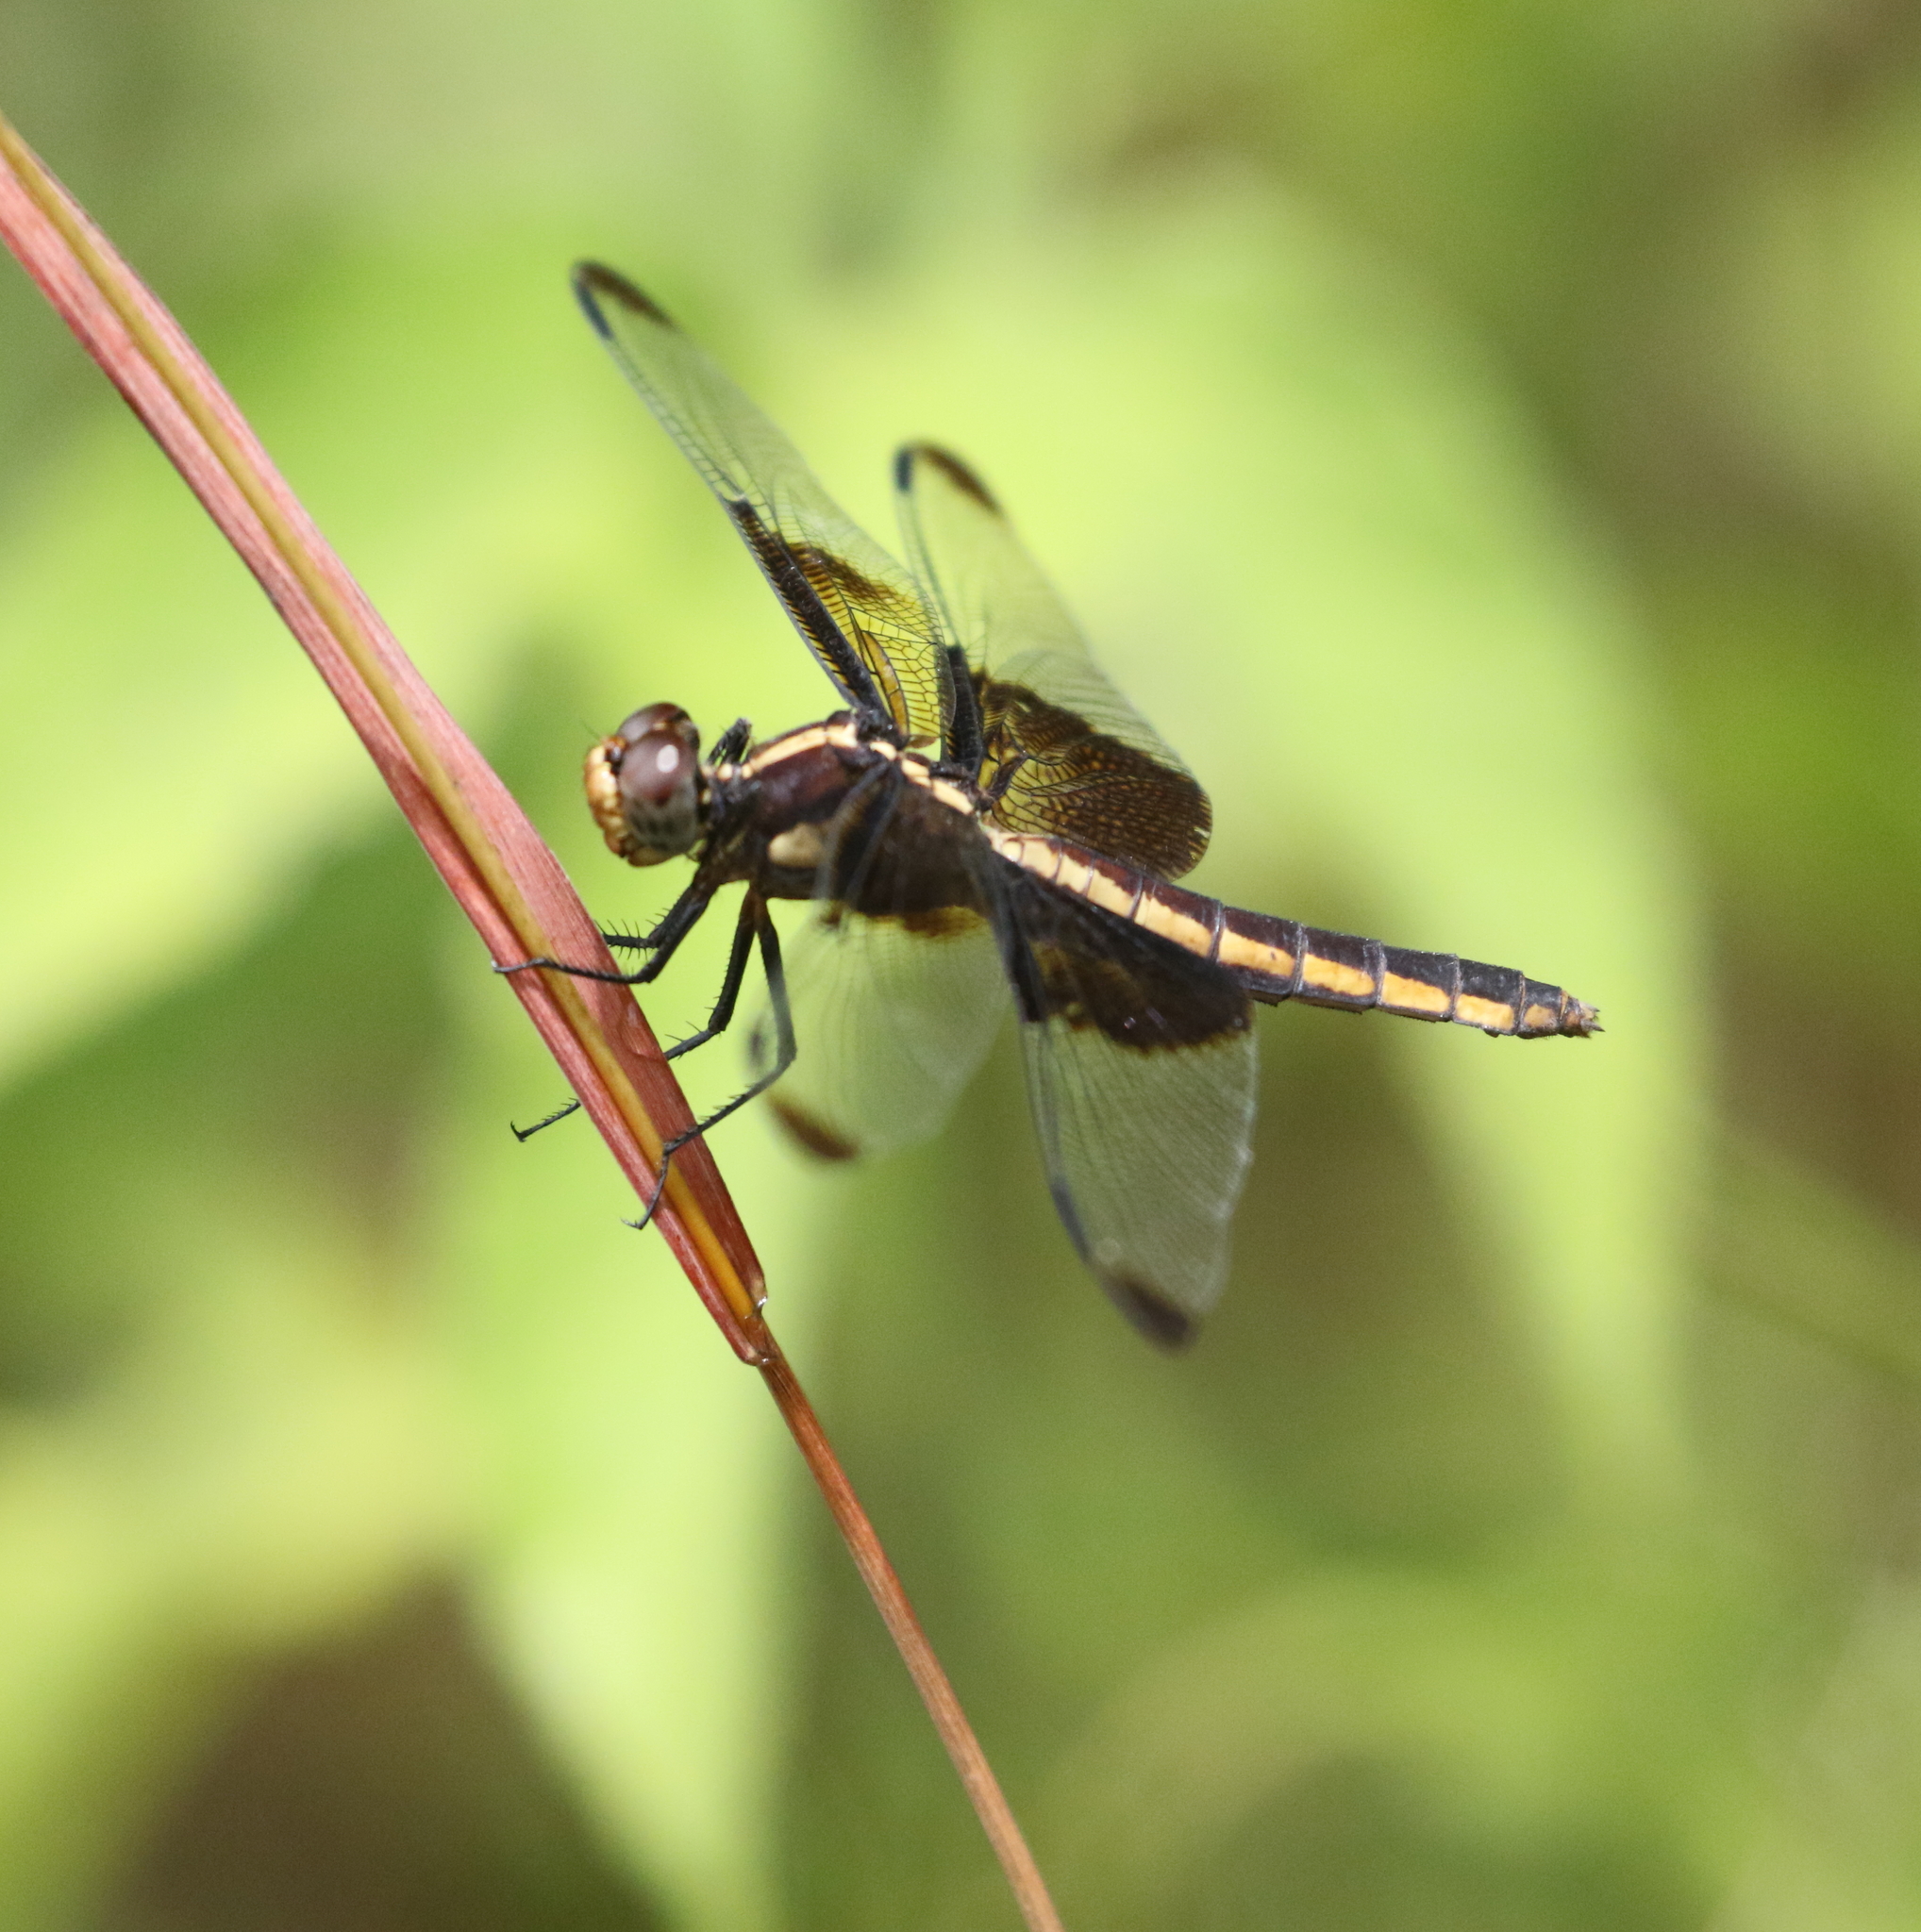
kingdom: Animalia
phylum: Arthropoda
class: Insecta
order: Odonata
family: Libellulidae
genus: Libellula
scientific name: Libellula luctuosa
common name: Widow skimmer
